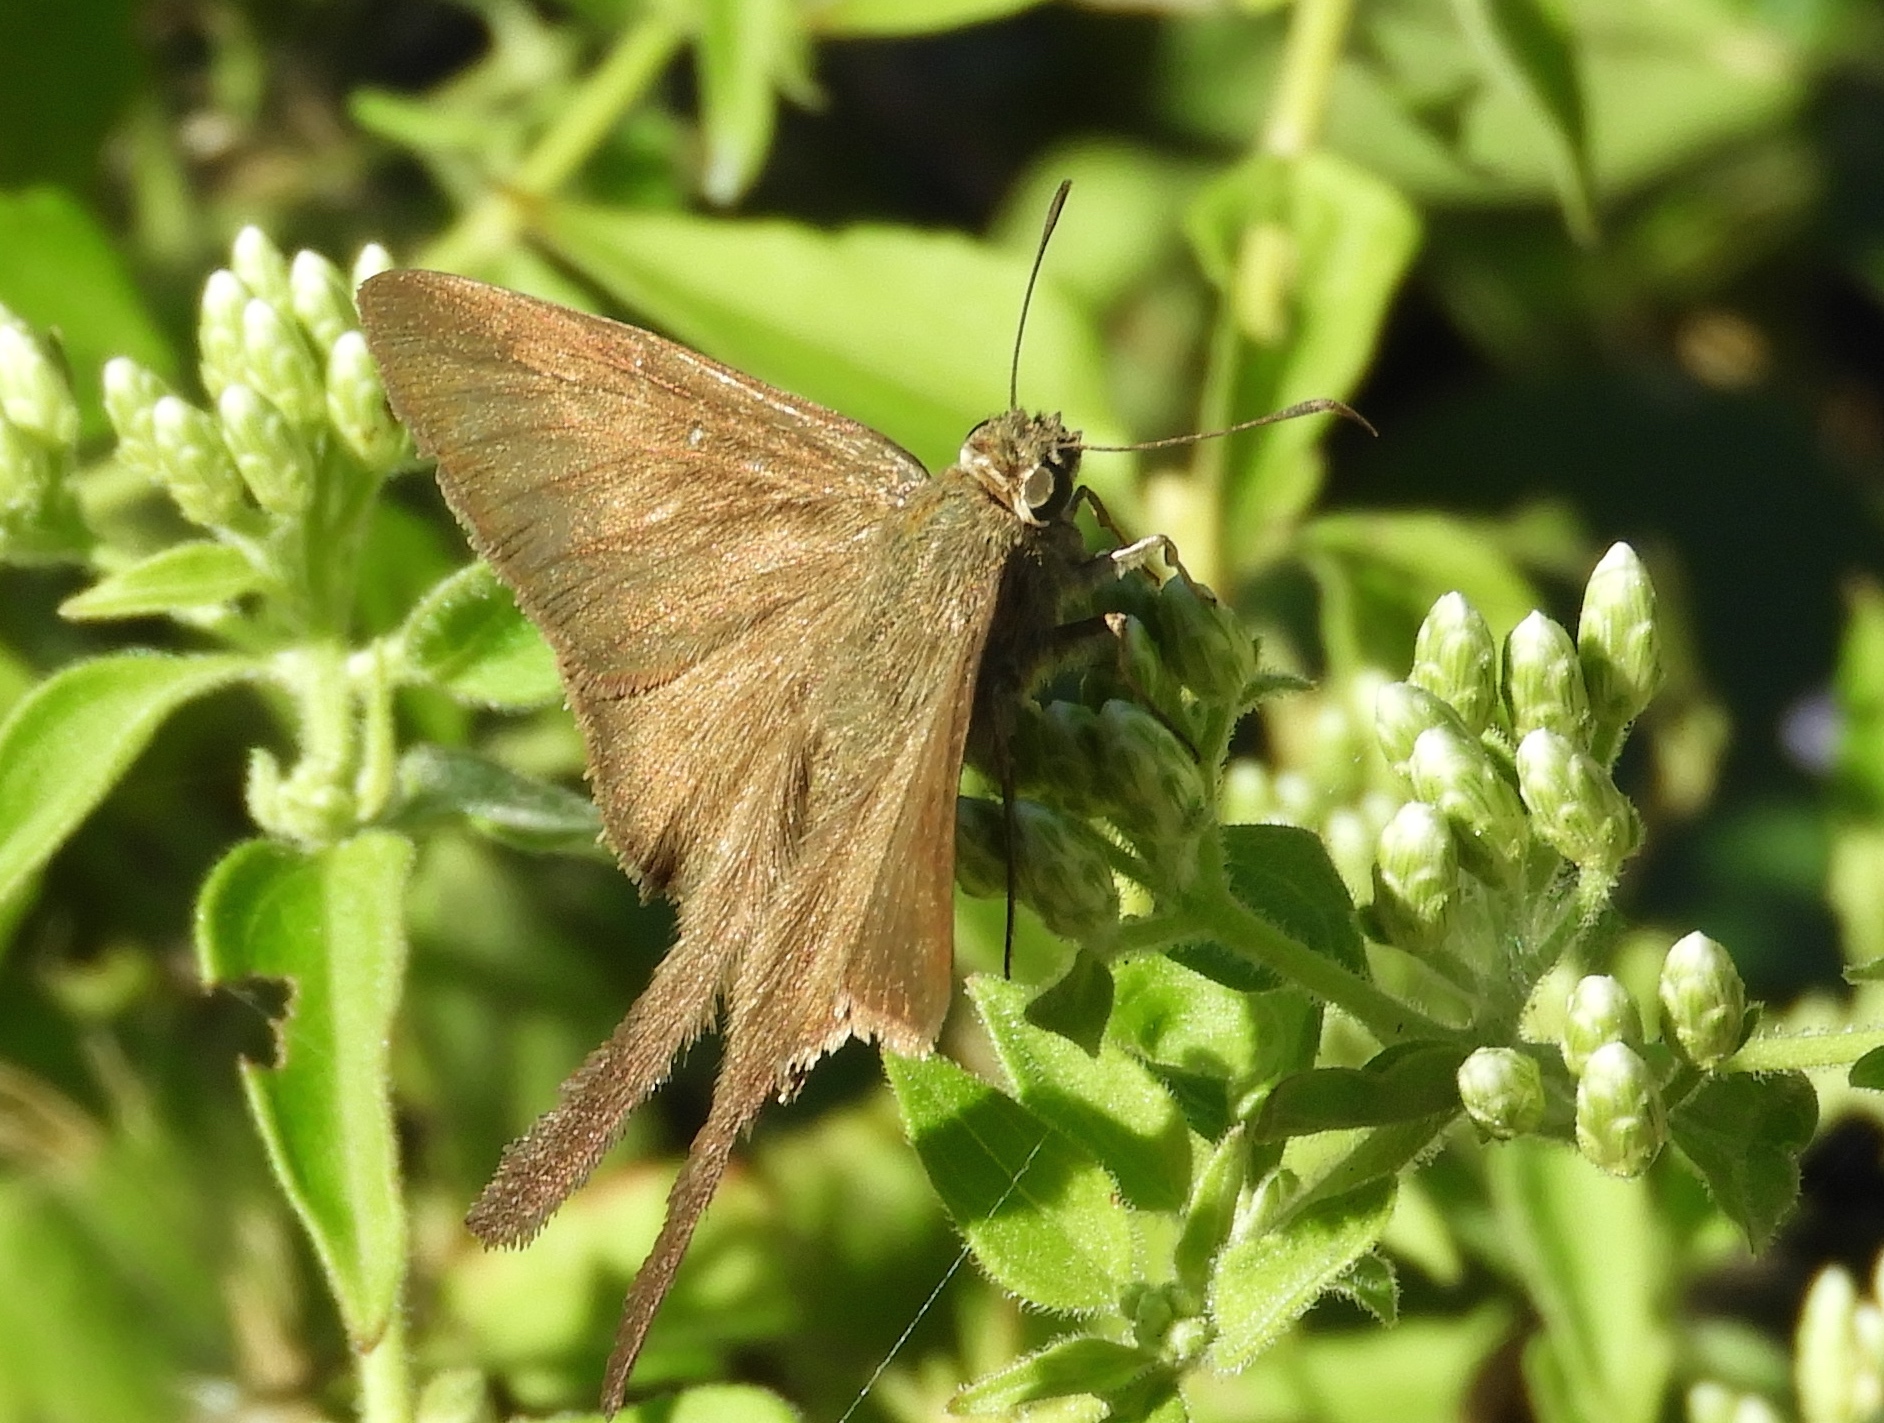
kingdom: Animalia
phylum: Arthropoda
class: Insecta
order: Lepidoptera
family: Hesperiidae
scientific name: Hesperiidae
